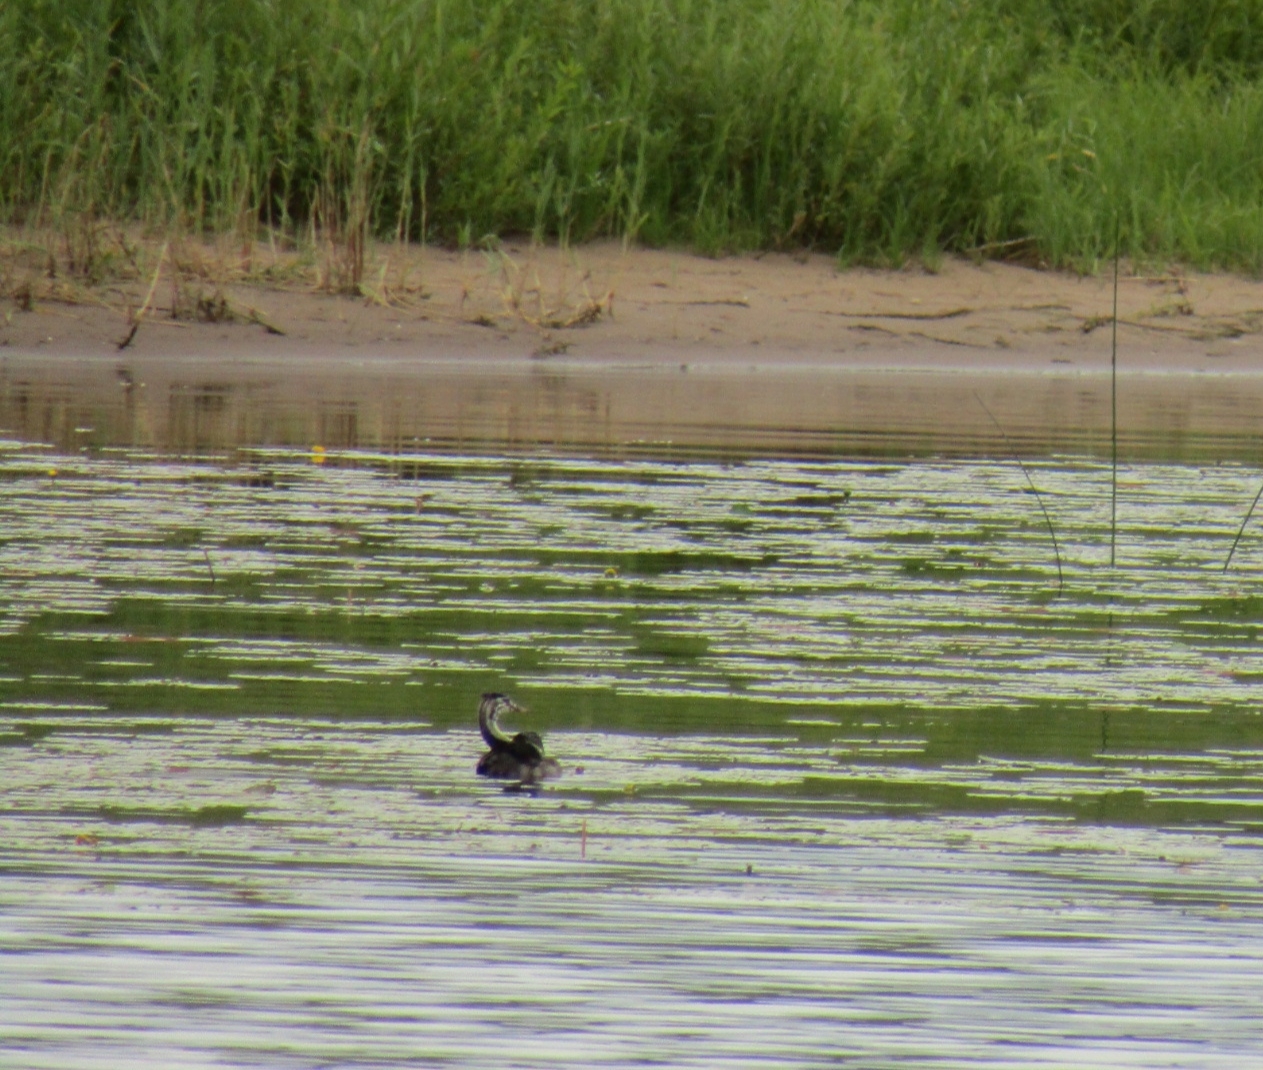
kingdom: Animalia
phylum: Chordata
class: Aves
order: Podicipediformes
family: Podicipedidae
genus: Podiceps
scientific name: Podiceps cristatus
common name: Great crested grebe
